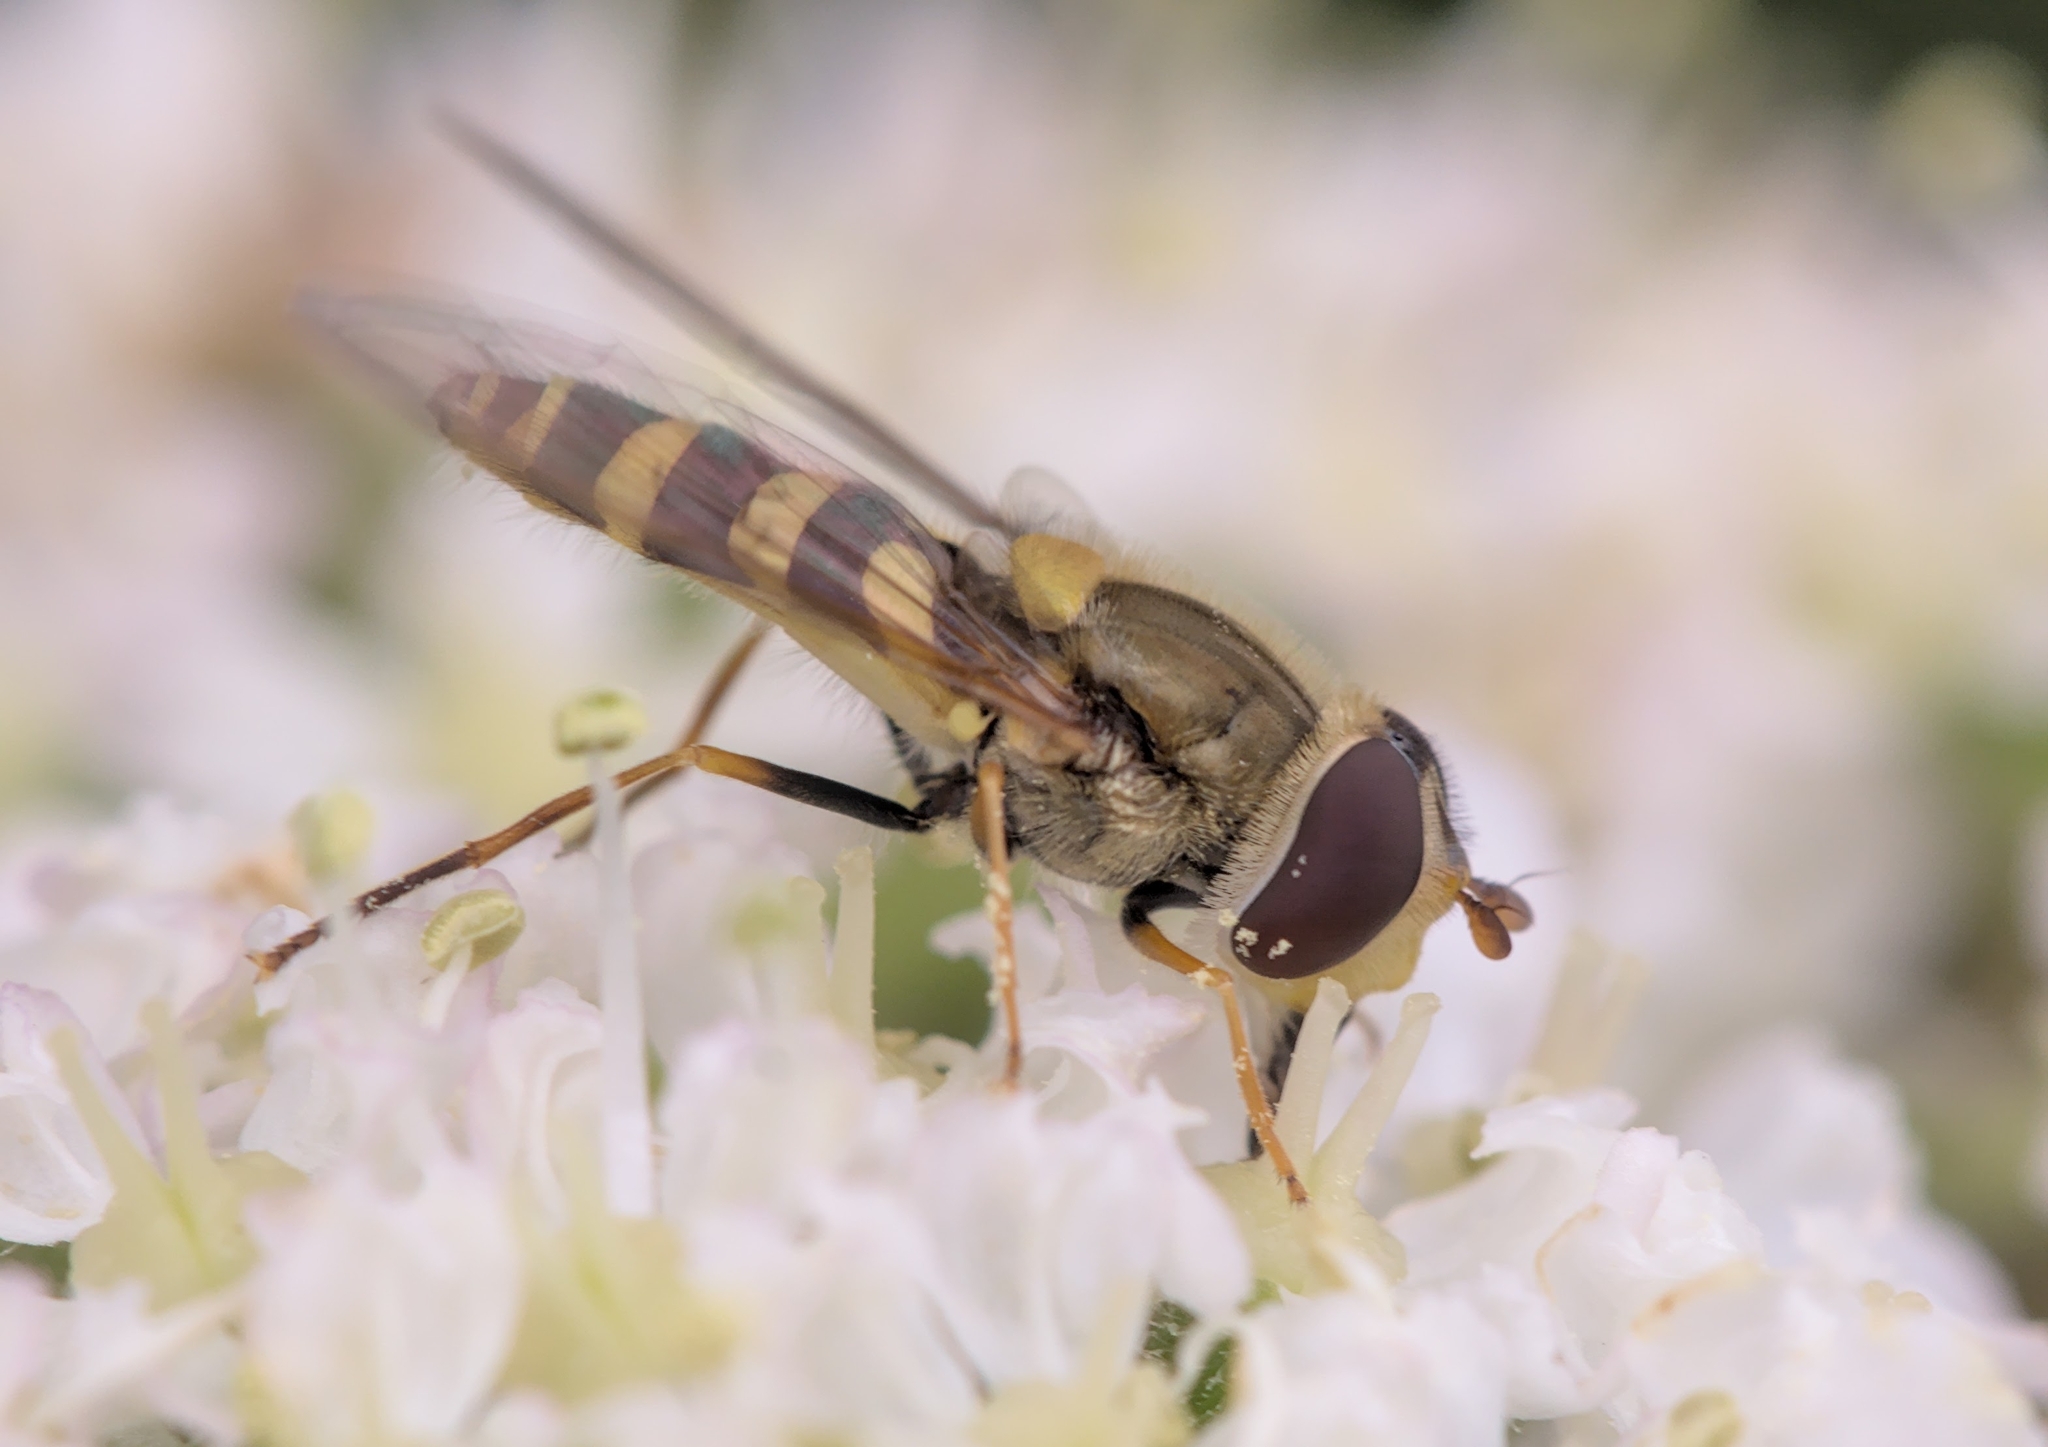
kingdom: Animalia
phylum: Arthropoda
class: Insecta
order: Diptera
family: Syrphidae
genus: Syrphus
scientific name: Syrphus
